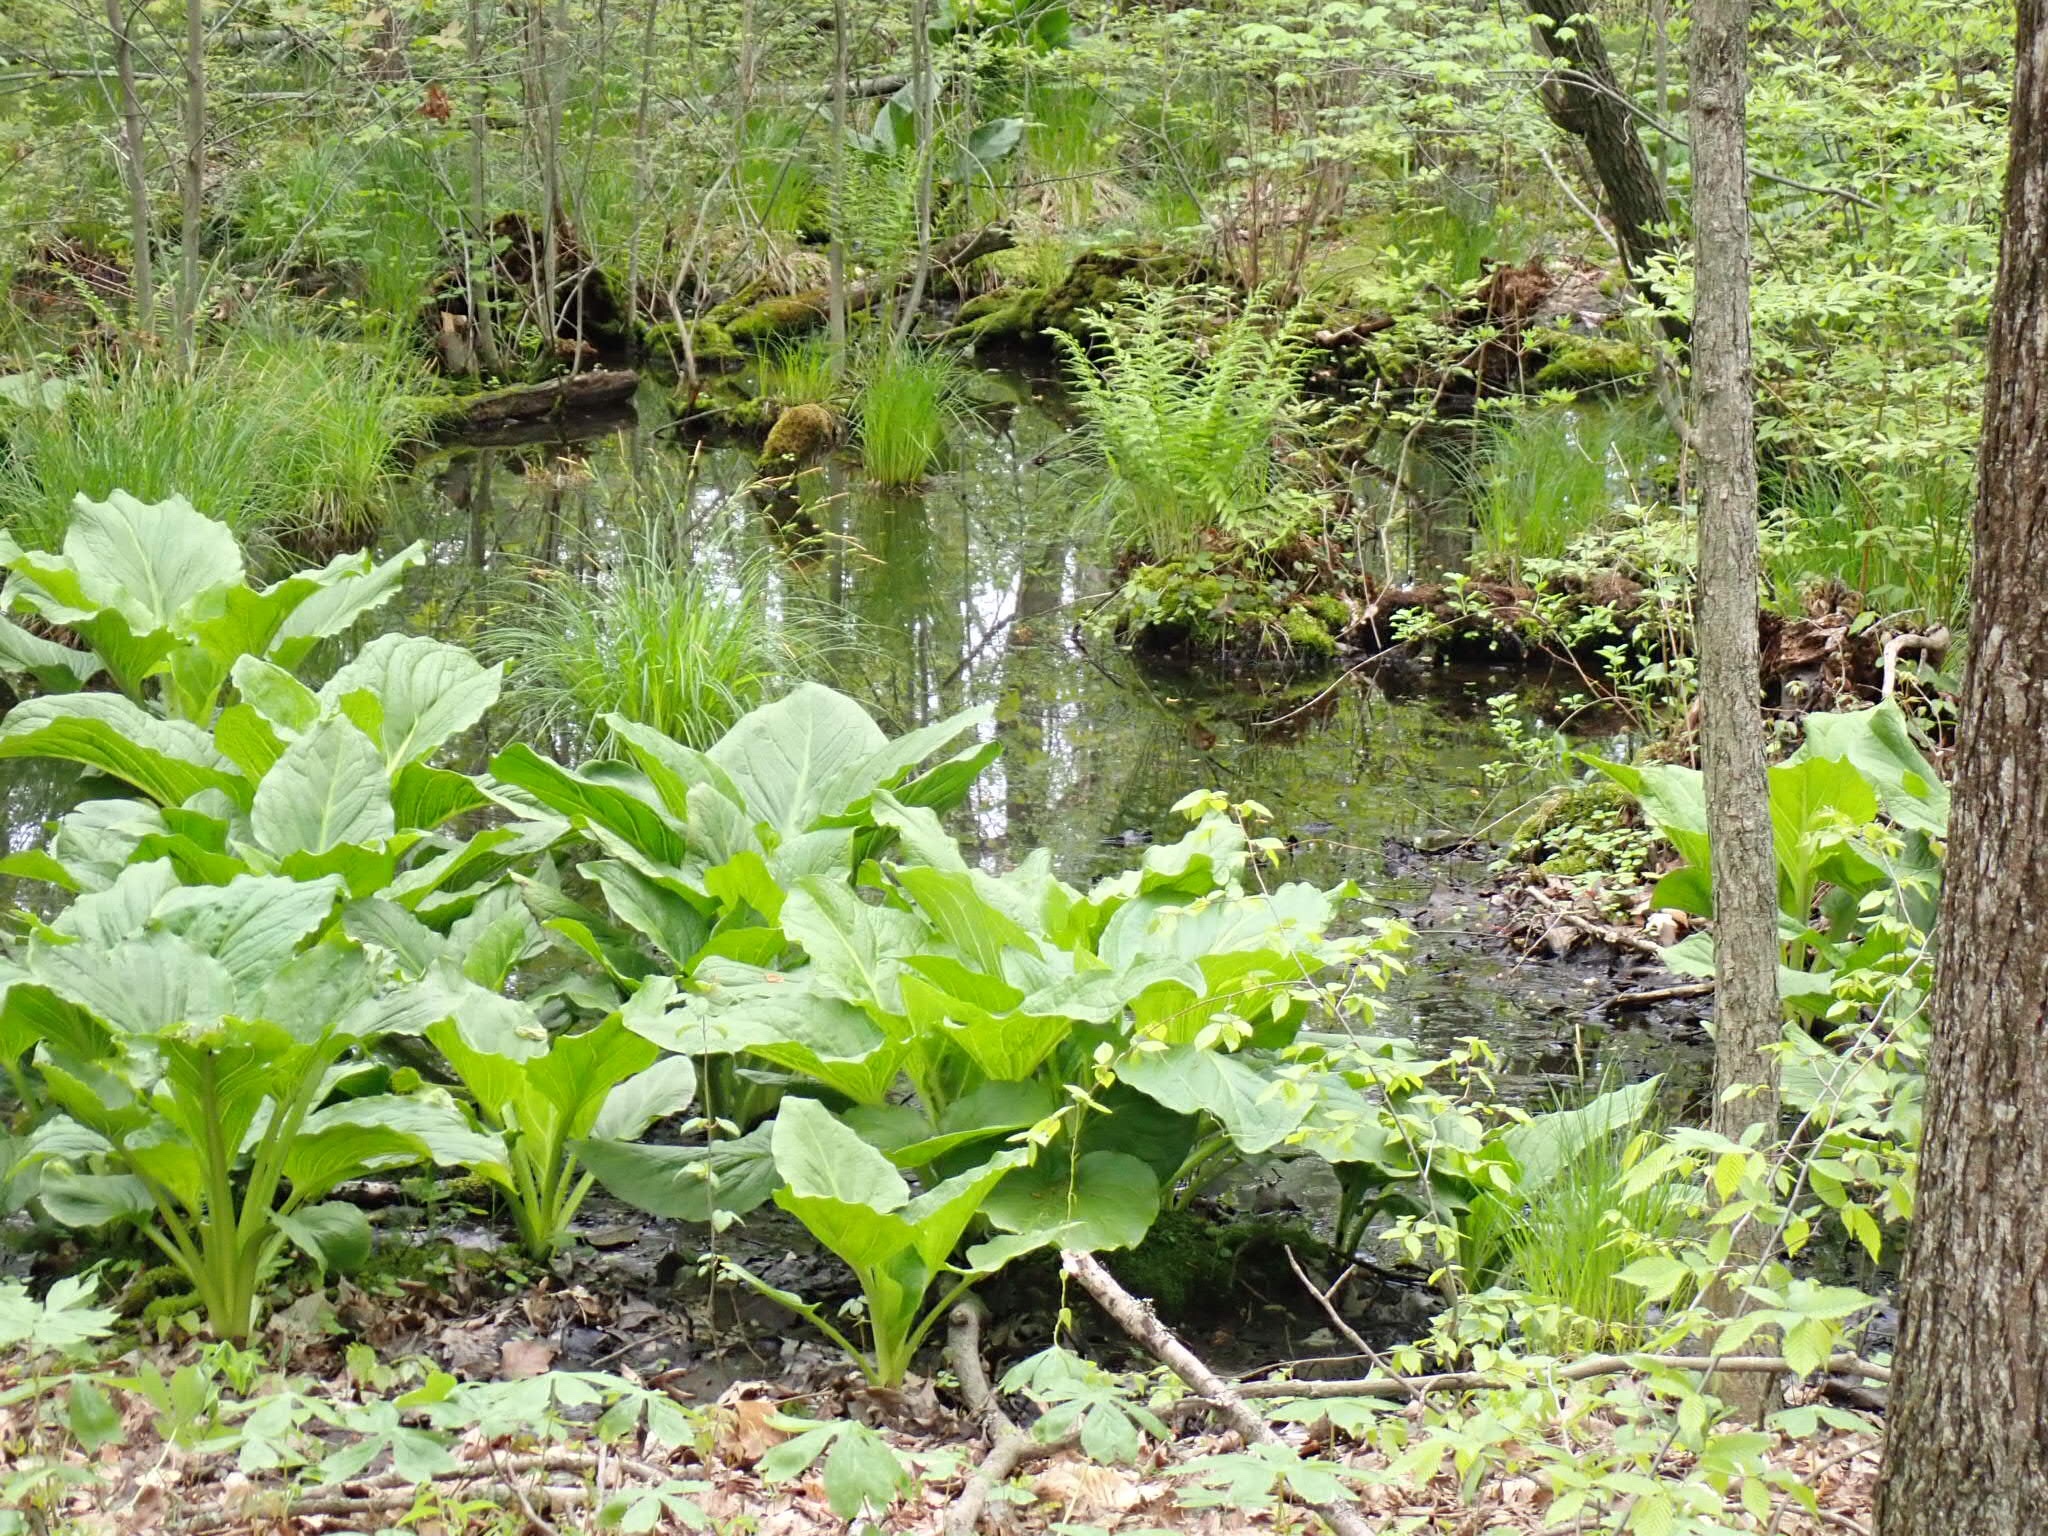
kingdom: Plantae
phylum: Tracheophyta
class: Liliopsida
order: Alismatales
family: Araceae
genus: Symplocarpus
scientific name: Symplocarpus foetidus
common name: Eastern skunk cabbage
